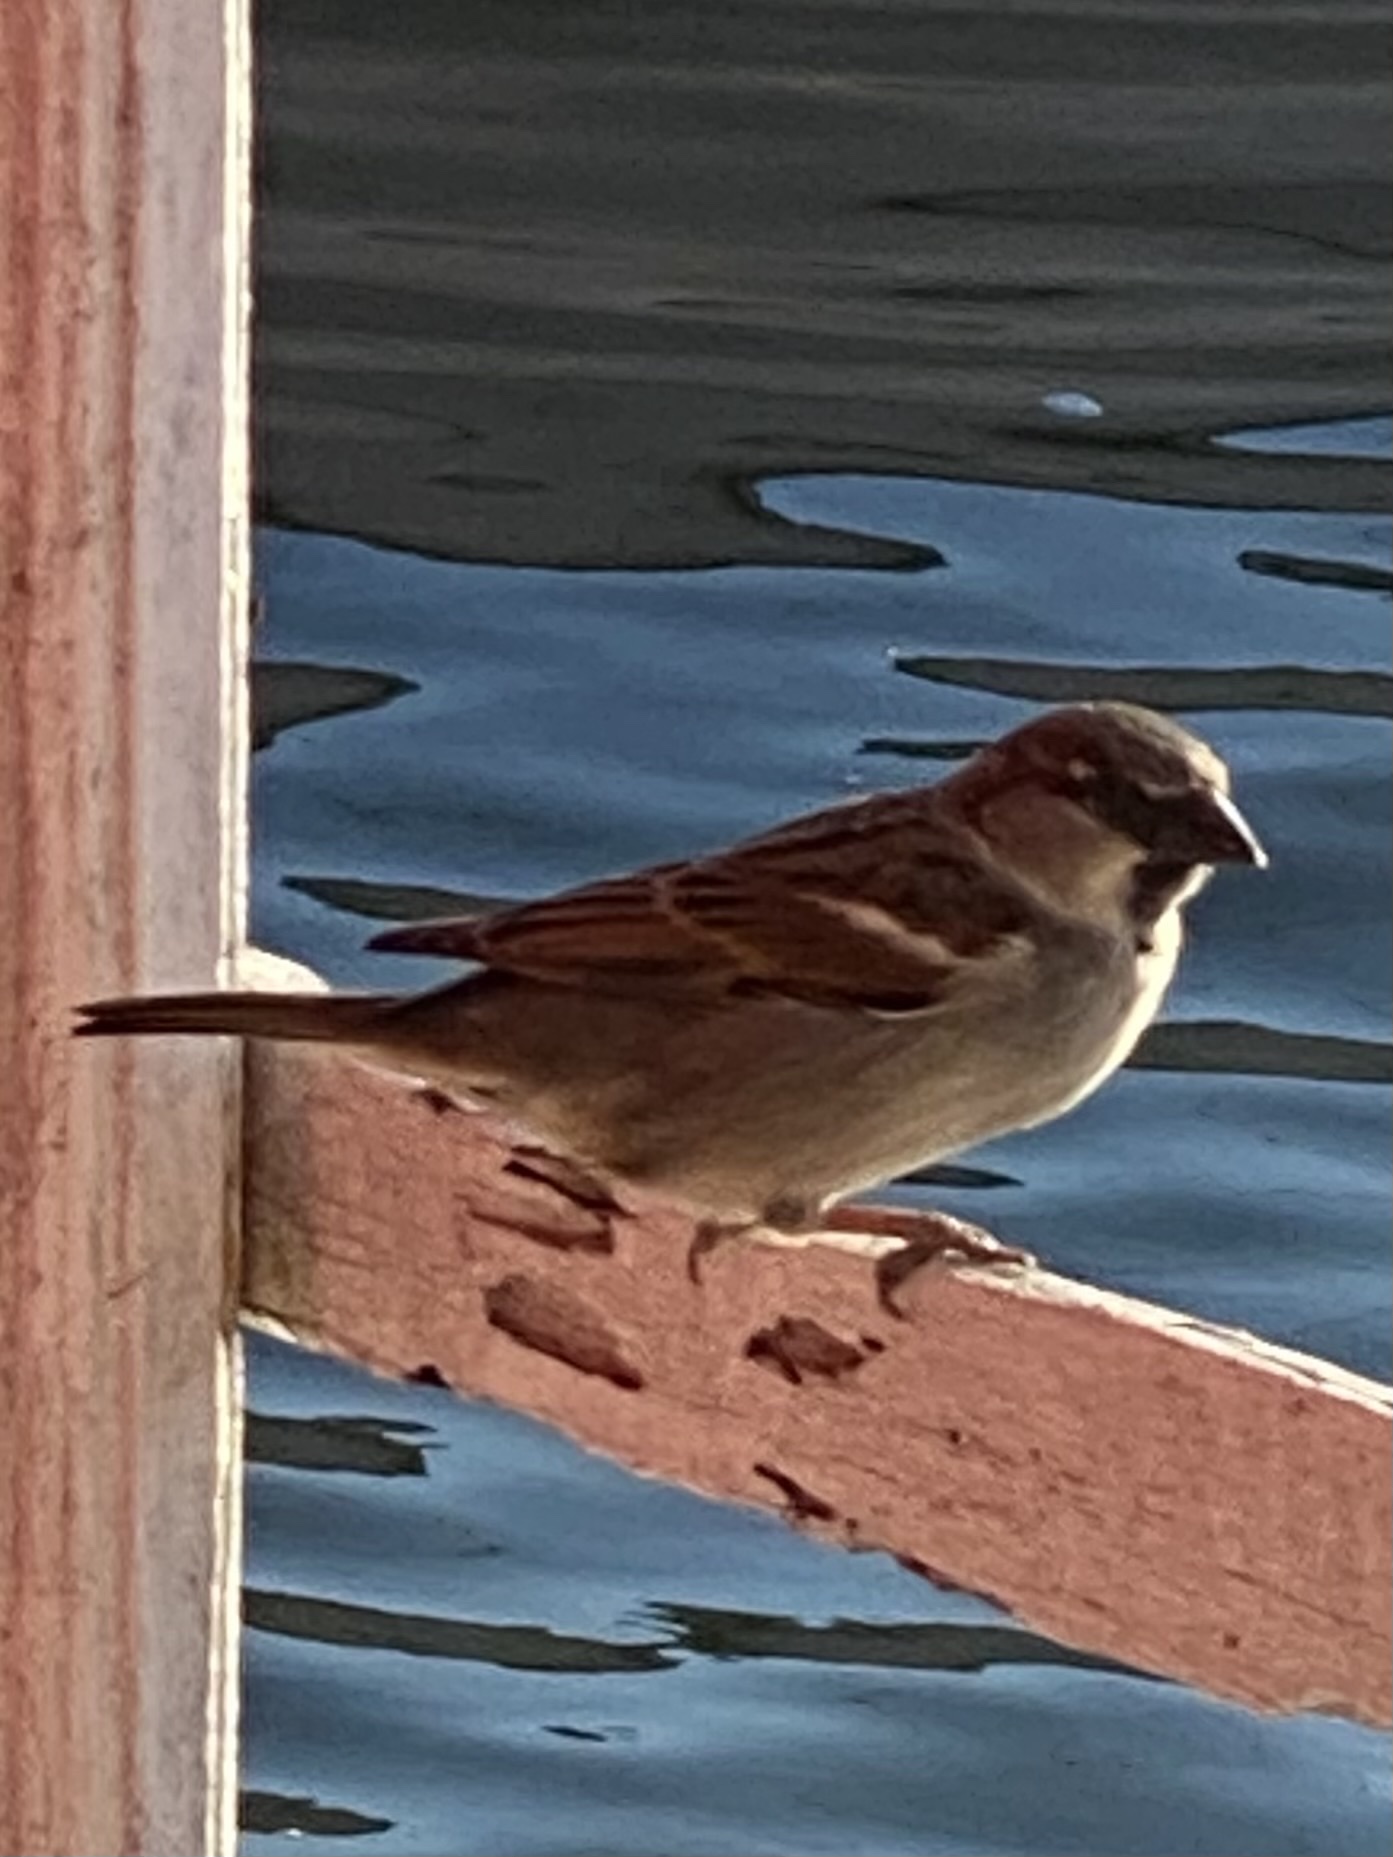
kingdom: Animalia
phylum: Chordata
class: Aves
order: Passeriformes
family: Passeridae
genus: Passer
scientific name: Passer domesticus
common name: House sparrow
